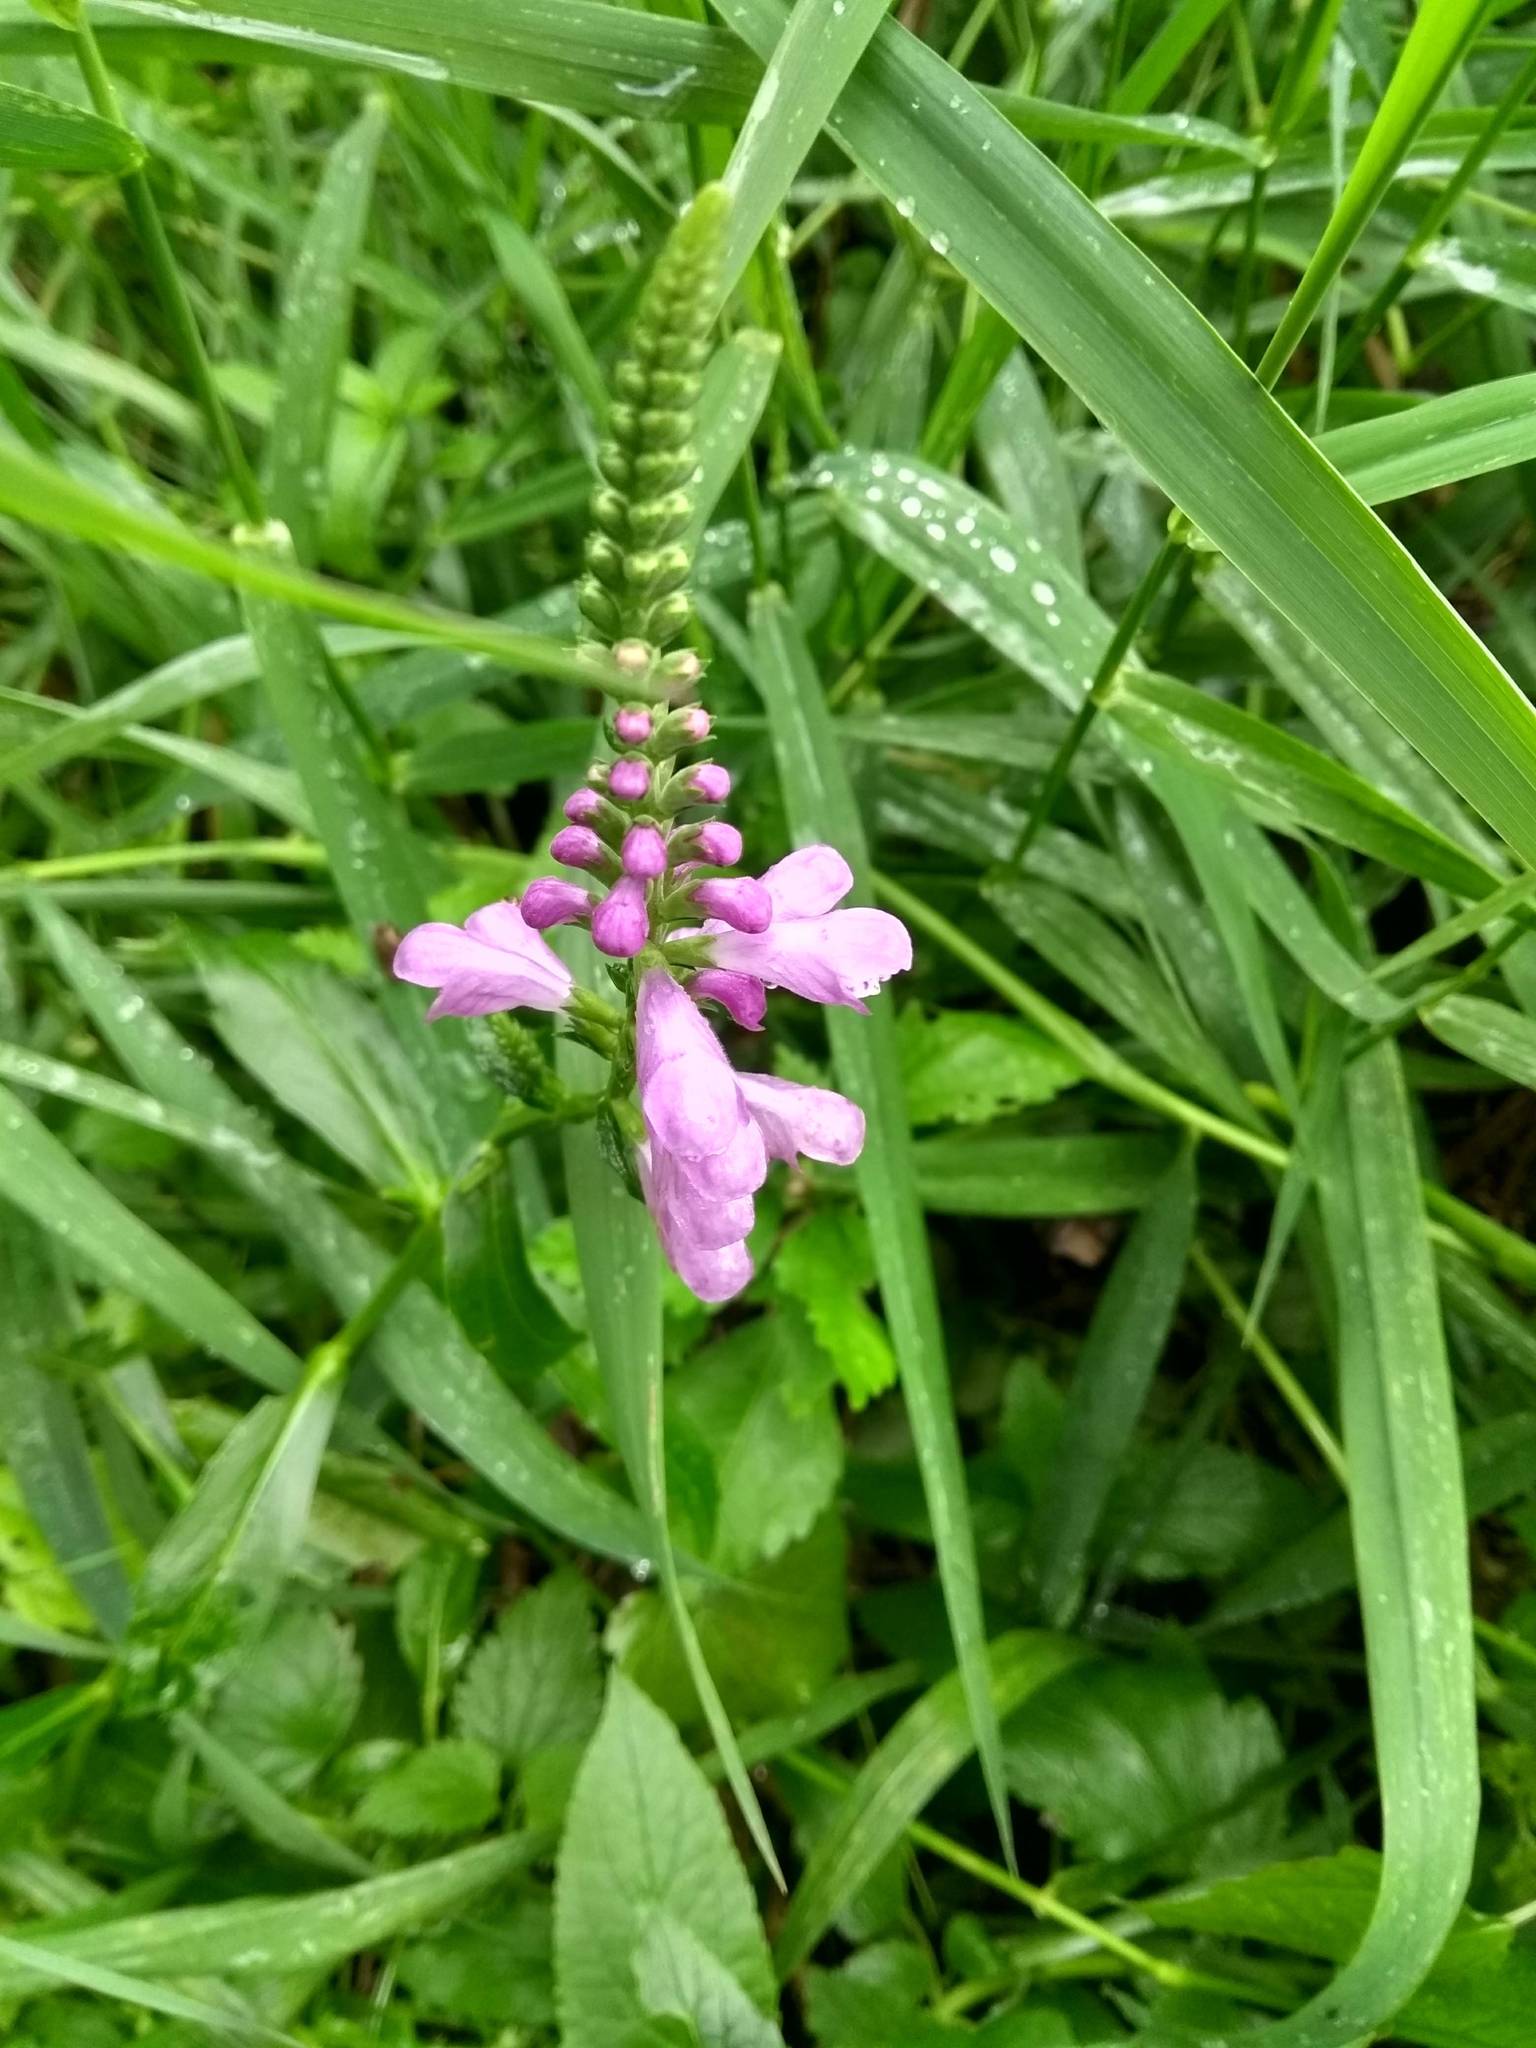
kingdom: Plantae
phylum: Tracheophyta
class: Magnoliopsida
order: Lamiales
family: Lamiaceae
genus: Physostegia
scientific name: Physostegia virginiana
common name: Obedient-plant
